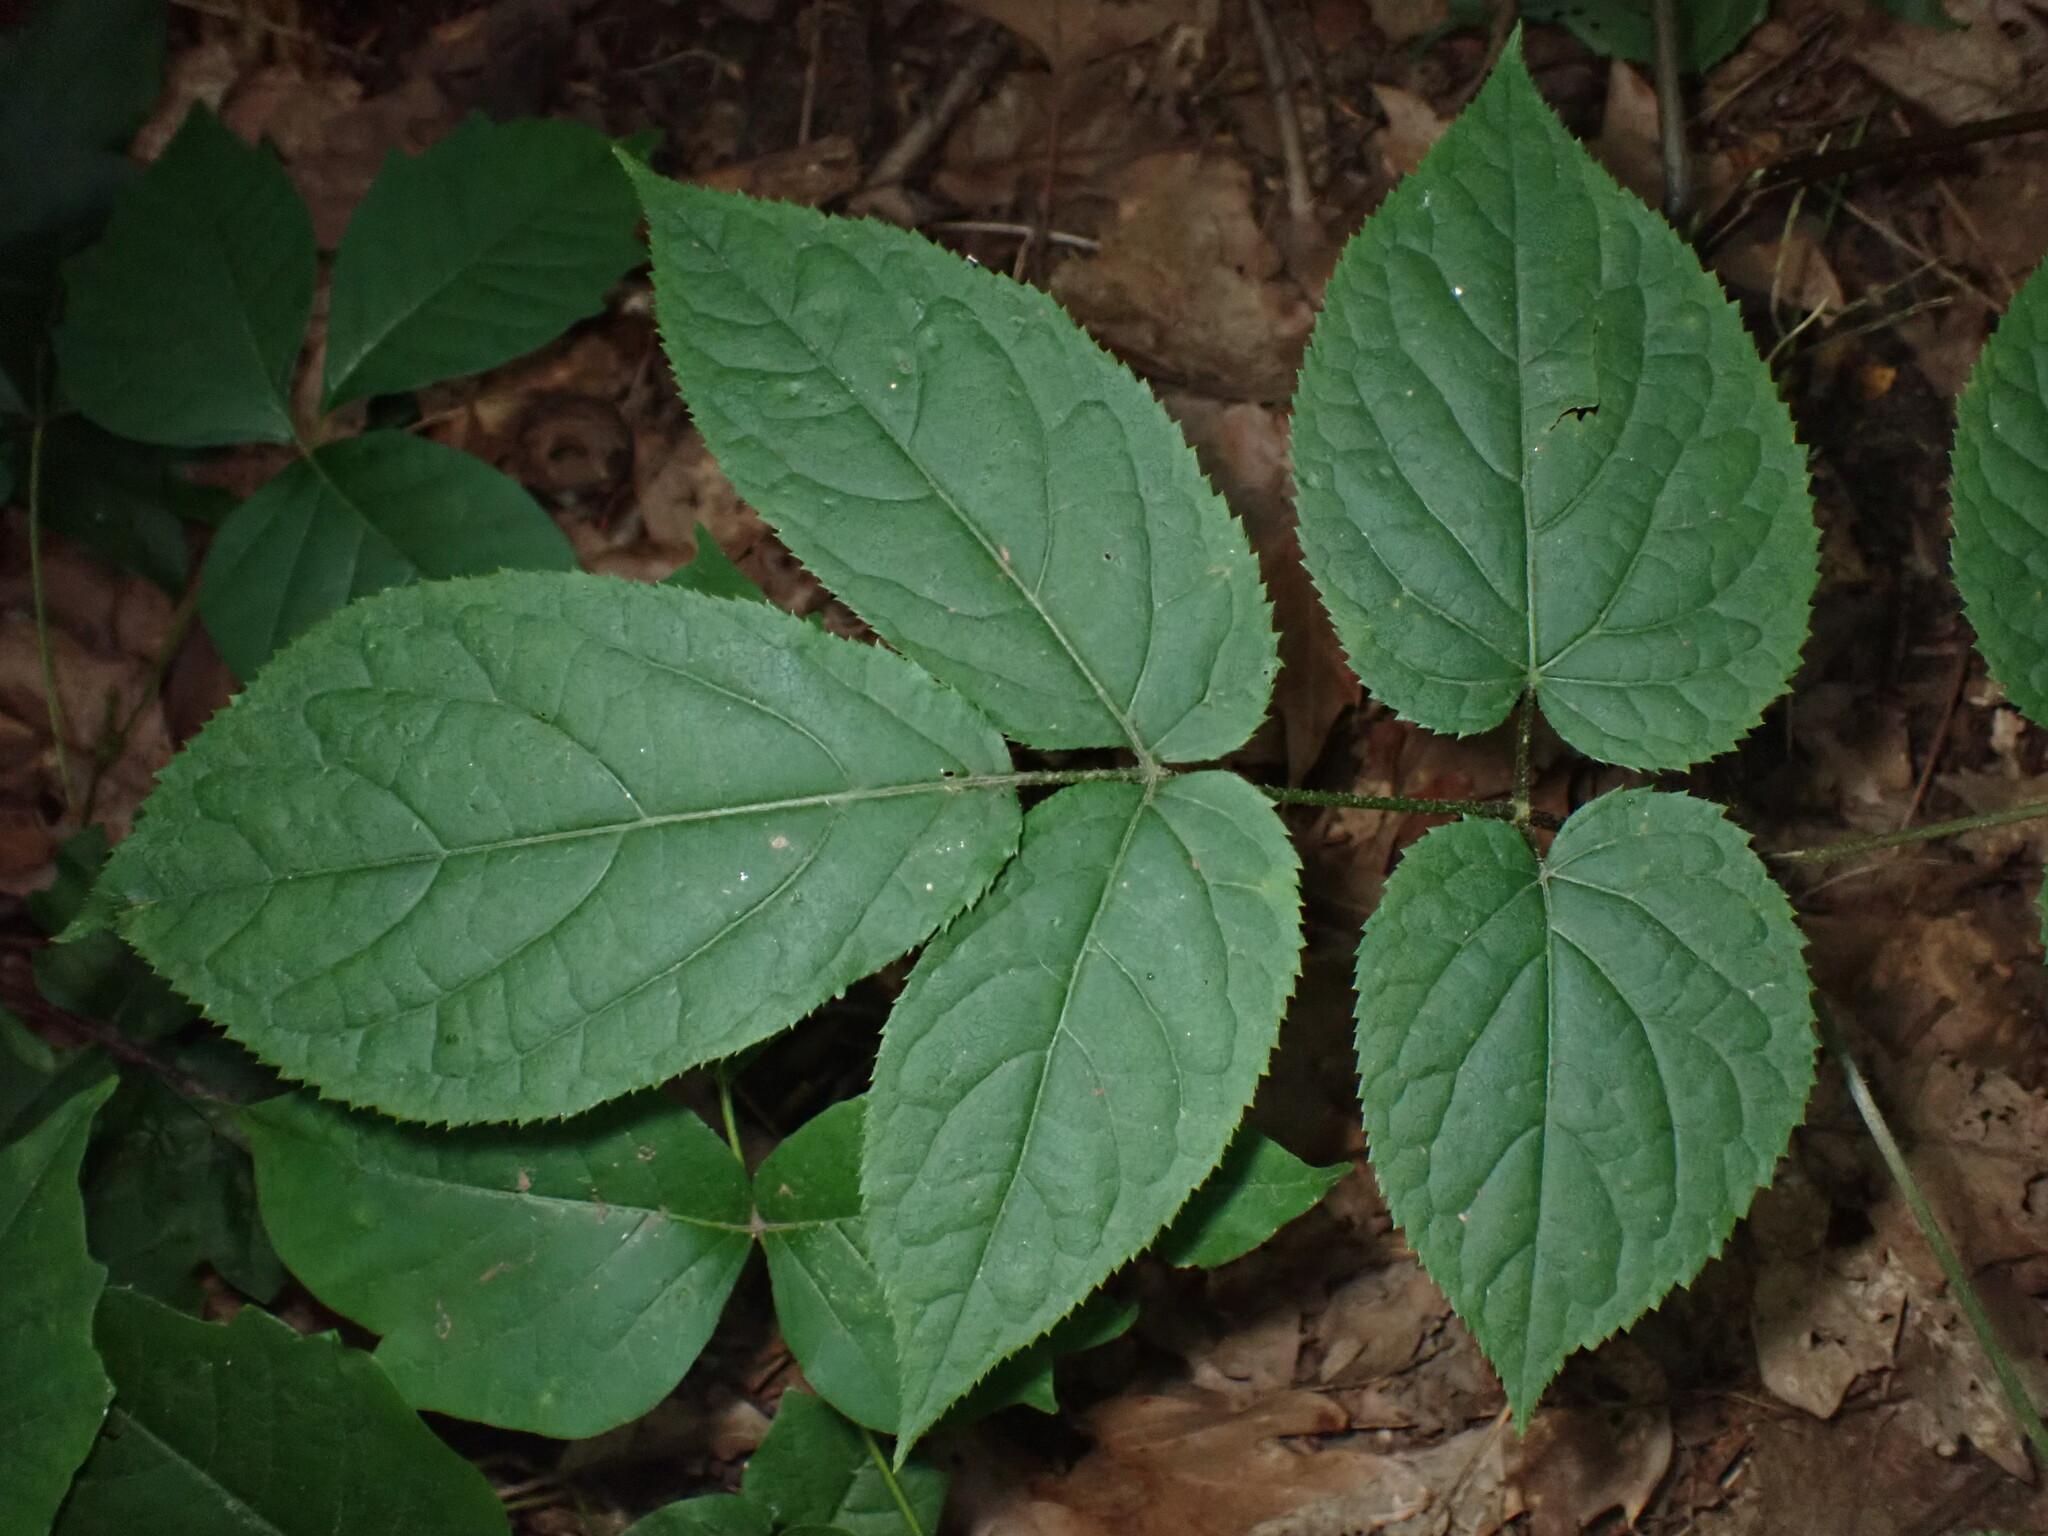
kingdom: Plantae
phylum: Tracheophyta
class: Magnoliopsida
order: Apiales
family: Araliaceae
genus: Aralia
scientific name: Aralia racemosa
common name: American-spikenard
